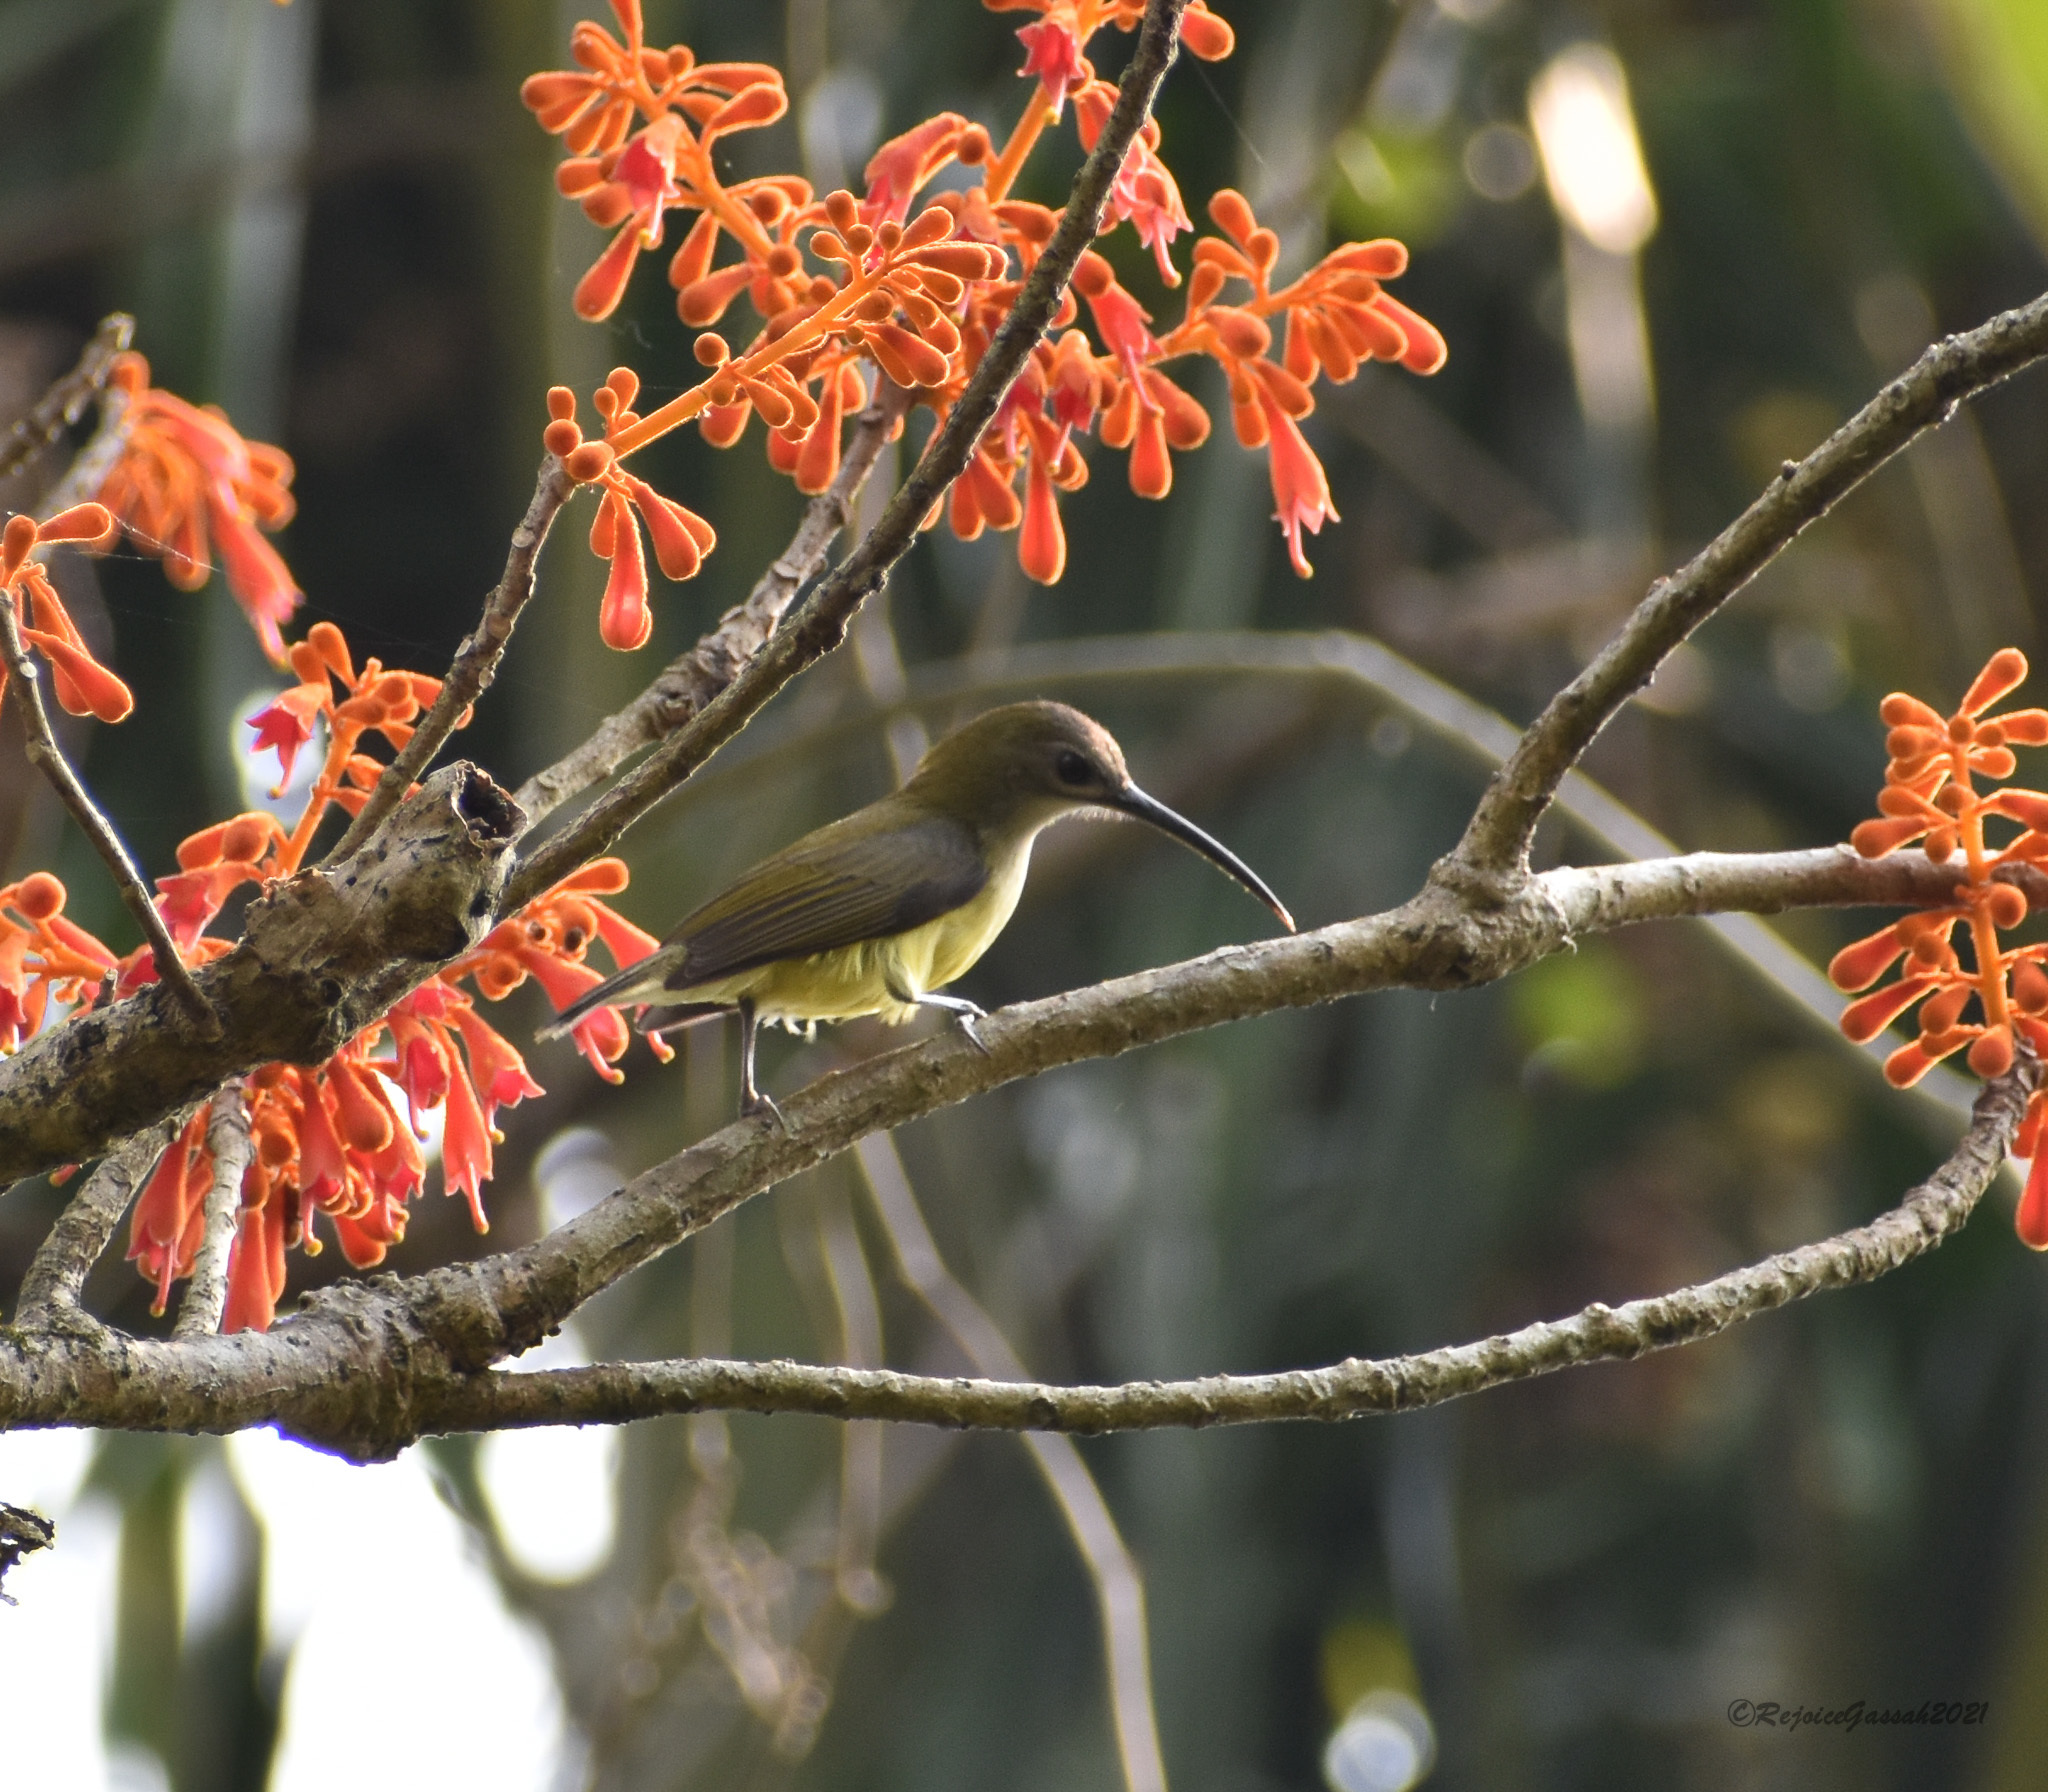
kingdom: Animalia
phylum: Chordata
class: Aves
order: Passeriformes
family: Nectariniidae
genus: Arachnothera
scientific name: Arachnothera longirostra
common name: Little spiderhunter
